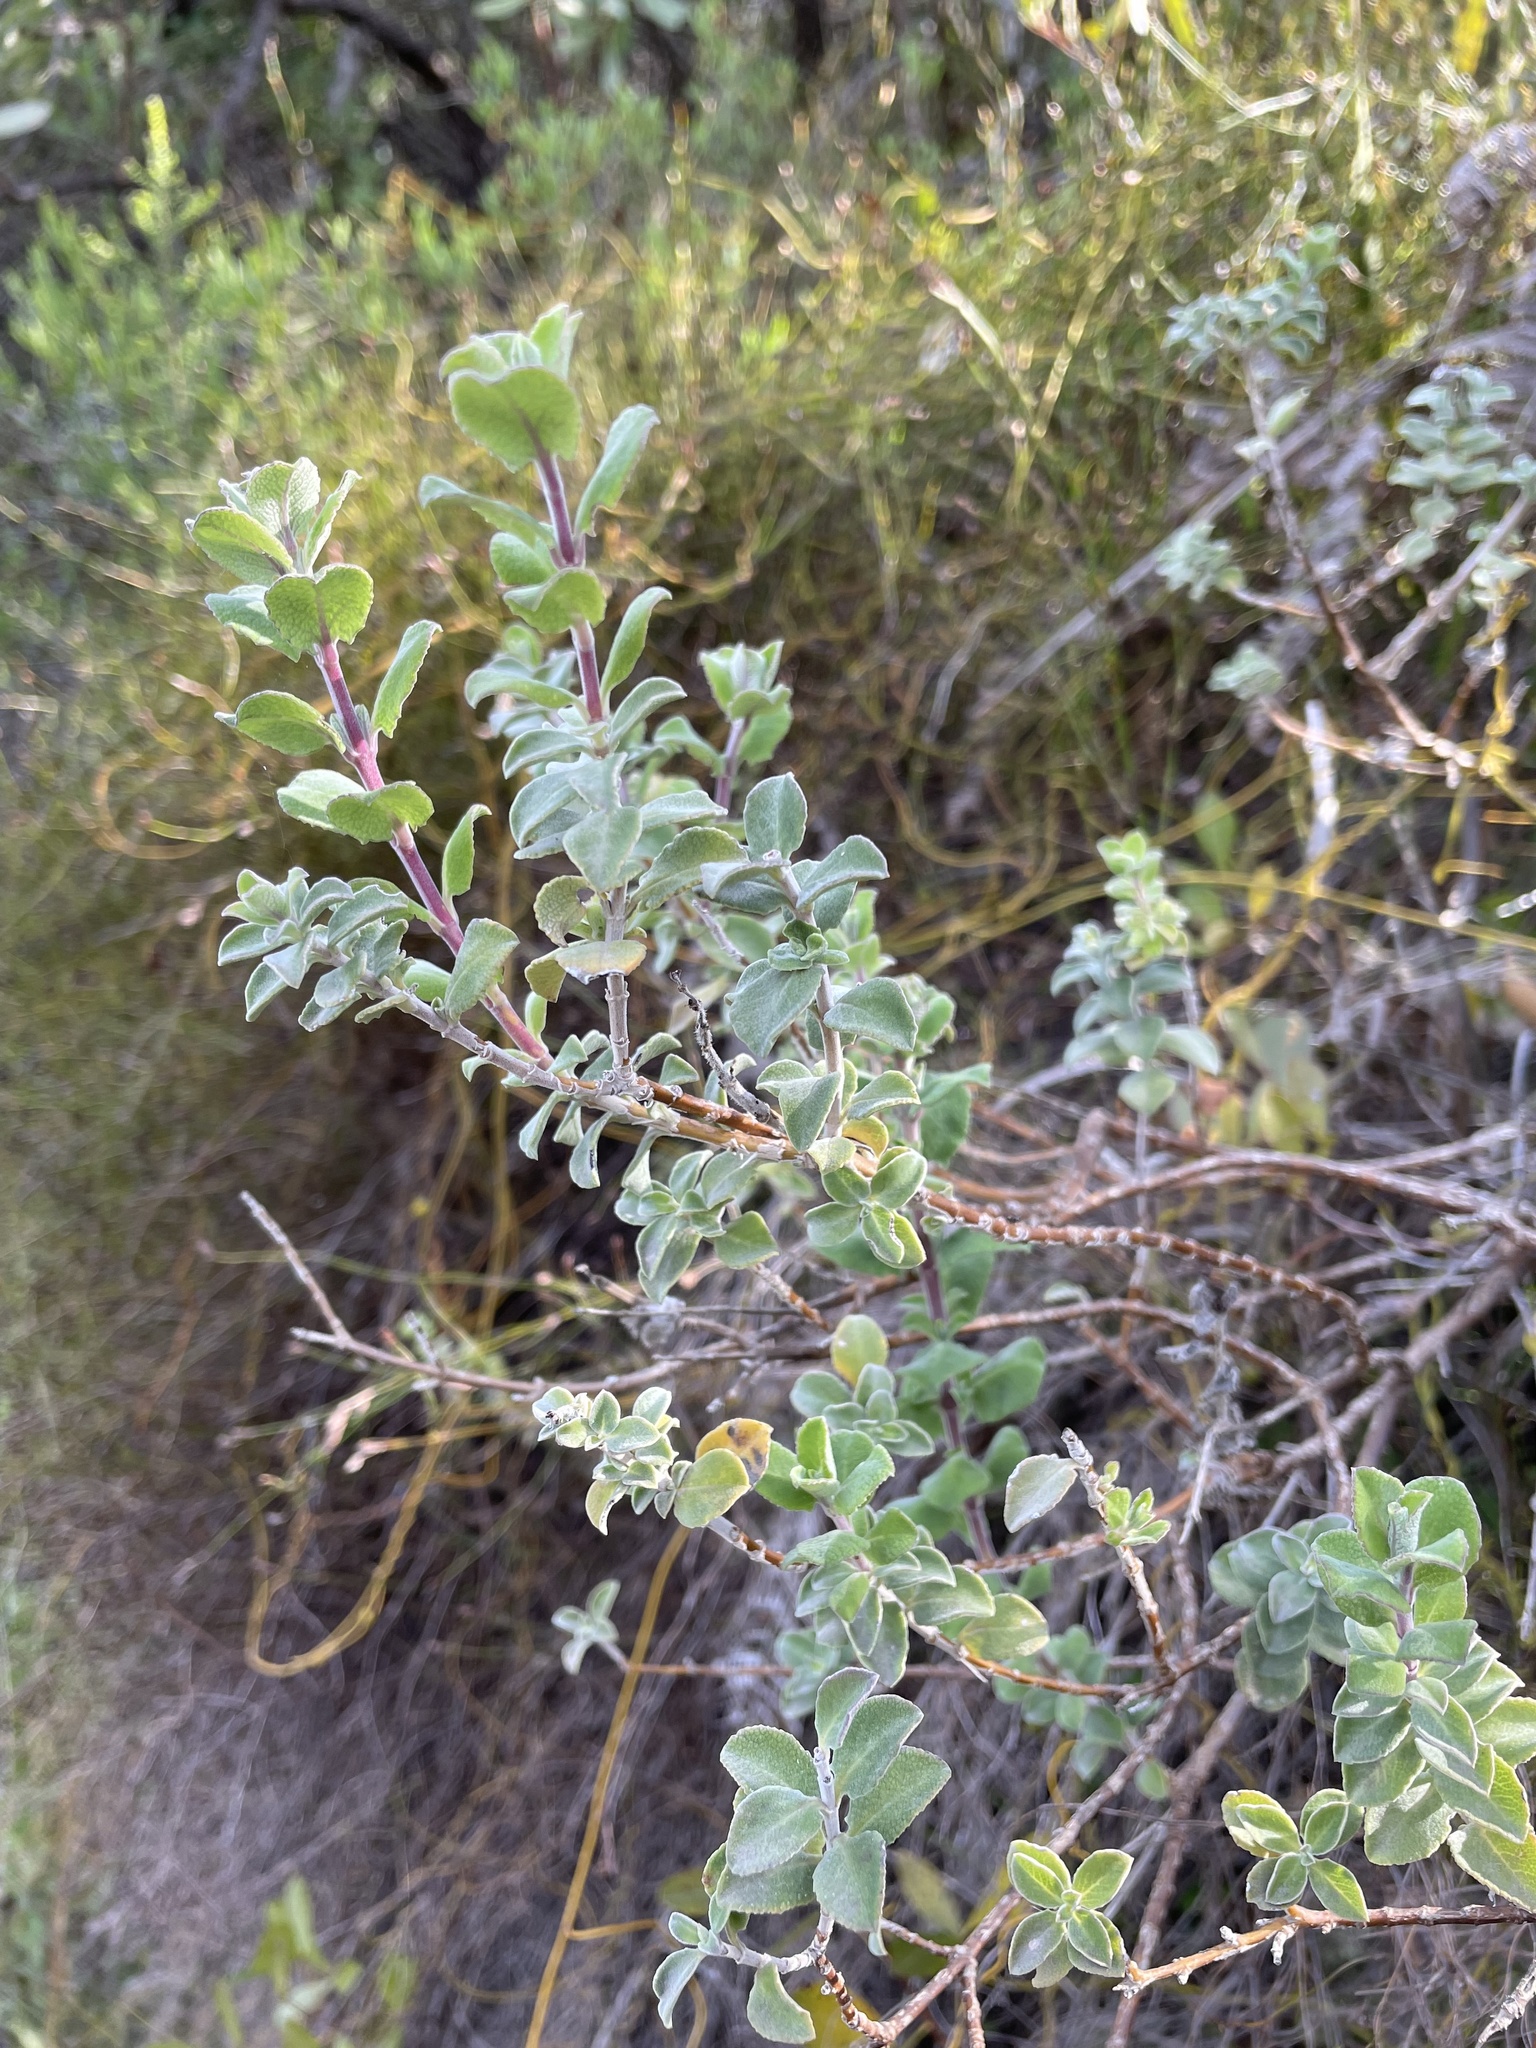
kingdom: Plantae
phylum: Tracheophyta
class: Magnoliopsida
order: Lamiales
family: Lamiaceae
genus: Salvia
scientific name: Salvia africana
